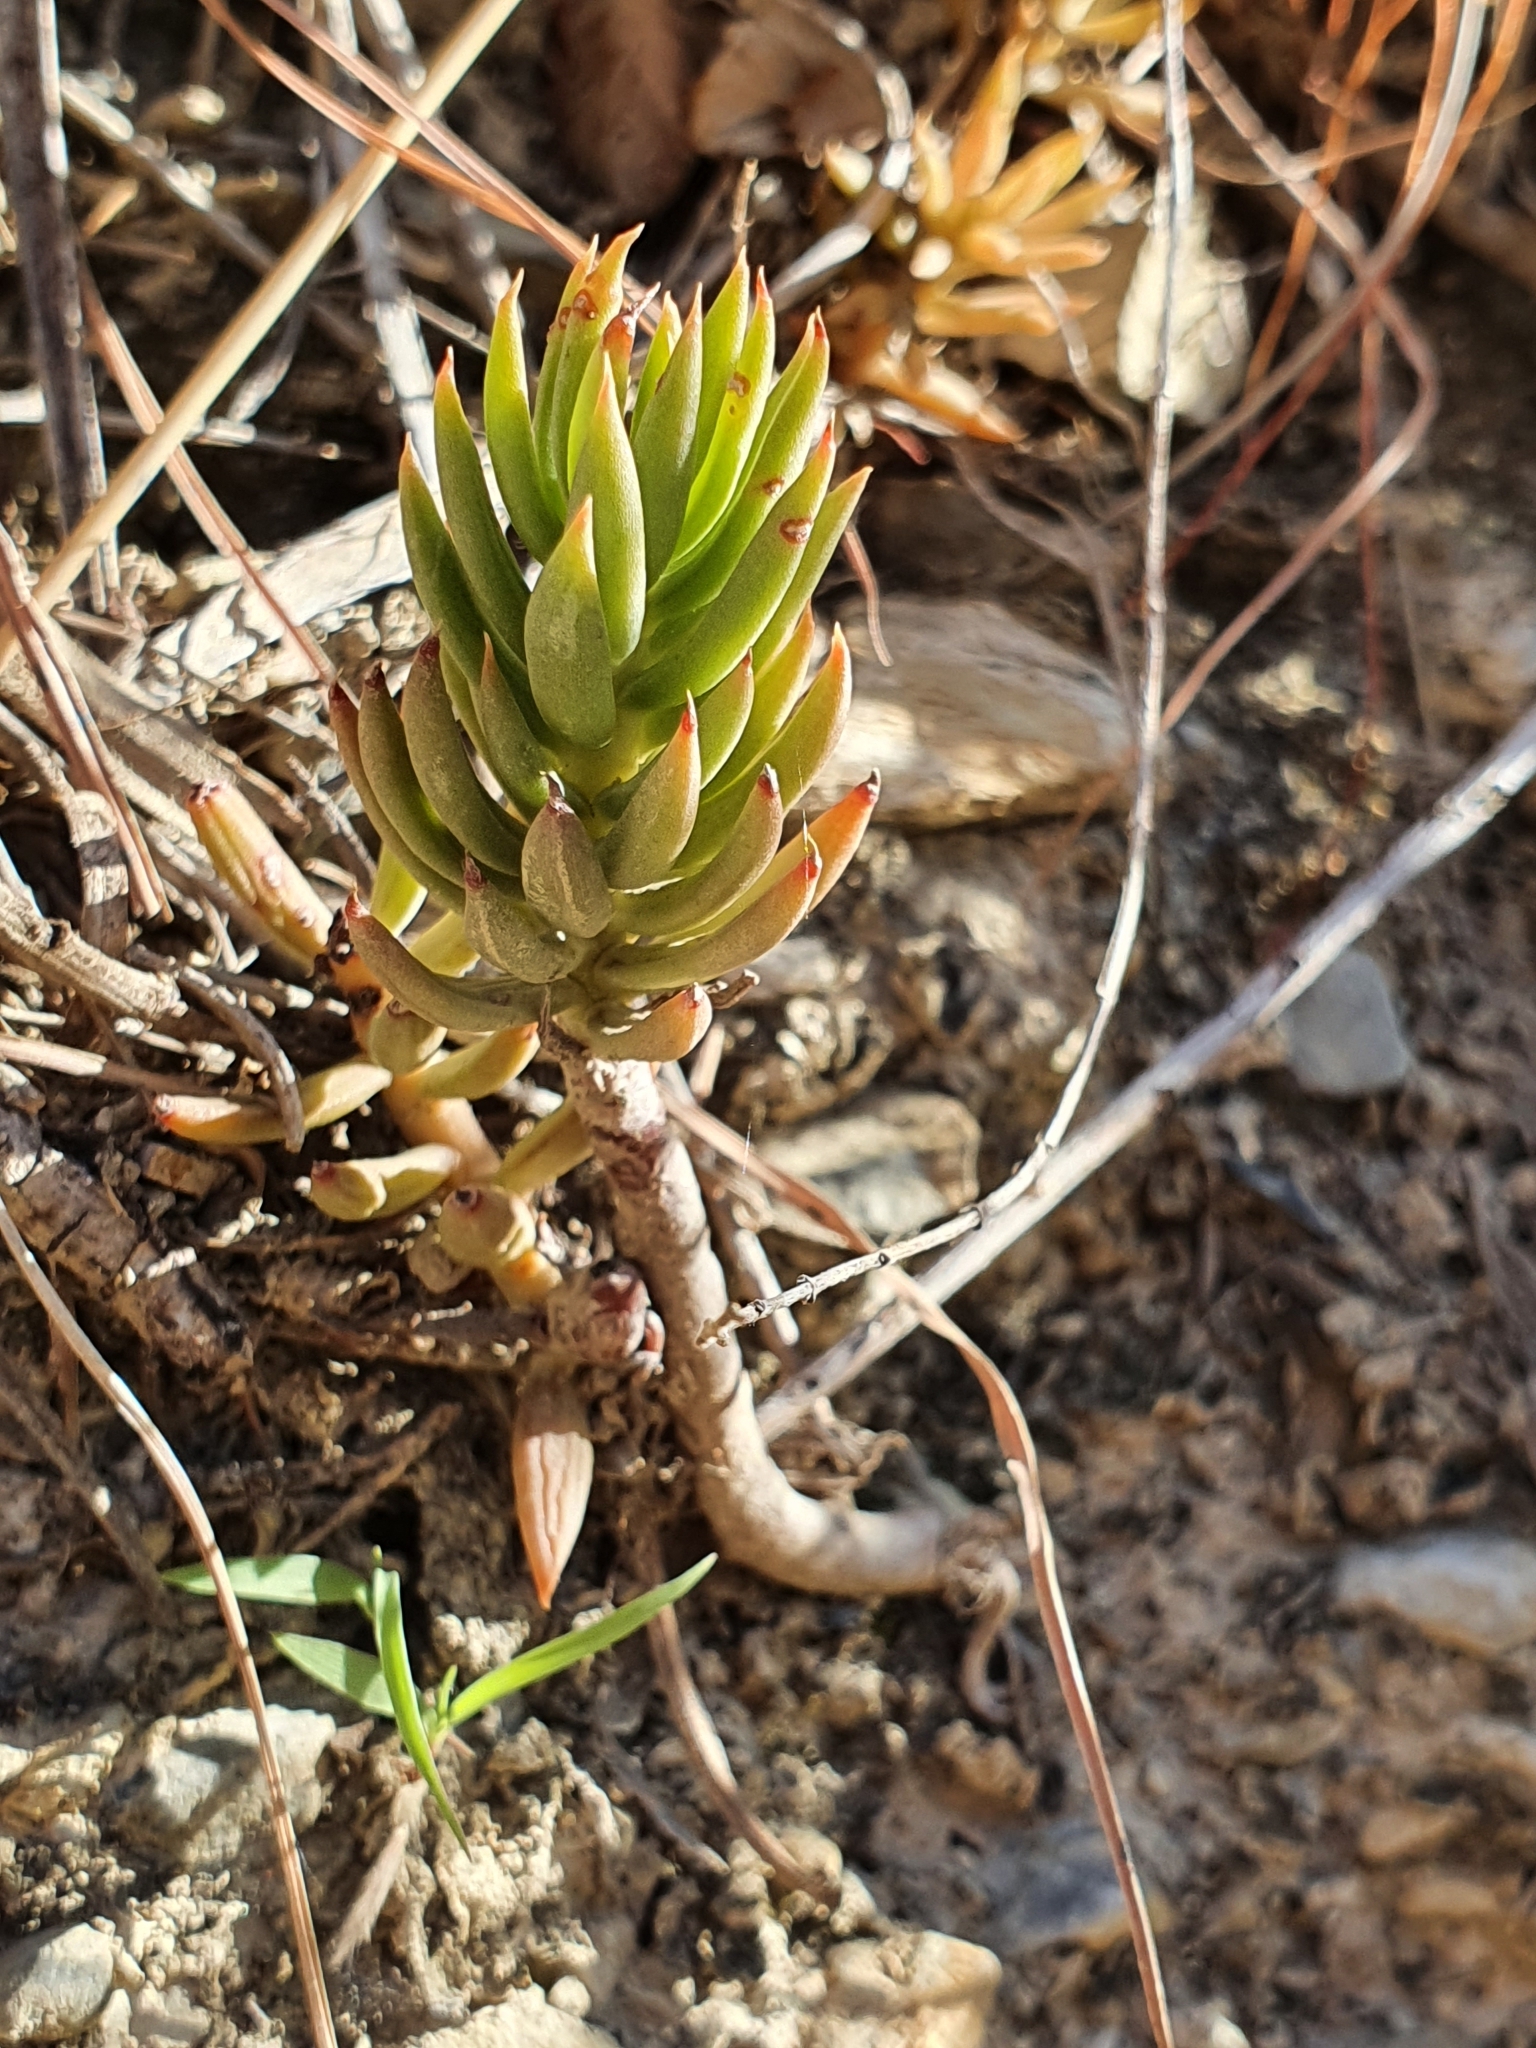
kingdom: Plantae
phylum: Tracheophyta
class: Magnoliopsida
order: Saxifragales
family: Crassulaceae
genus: Petrosedum
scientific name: Petrosedum sediforme
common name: Pale stonecrop
